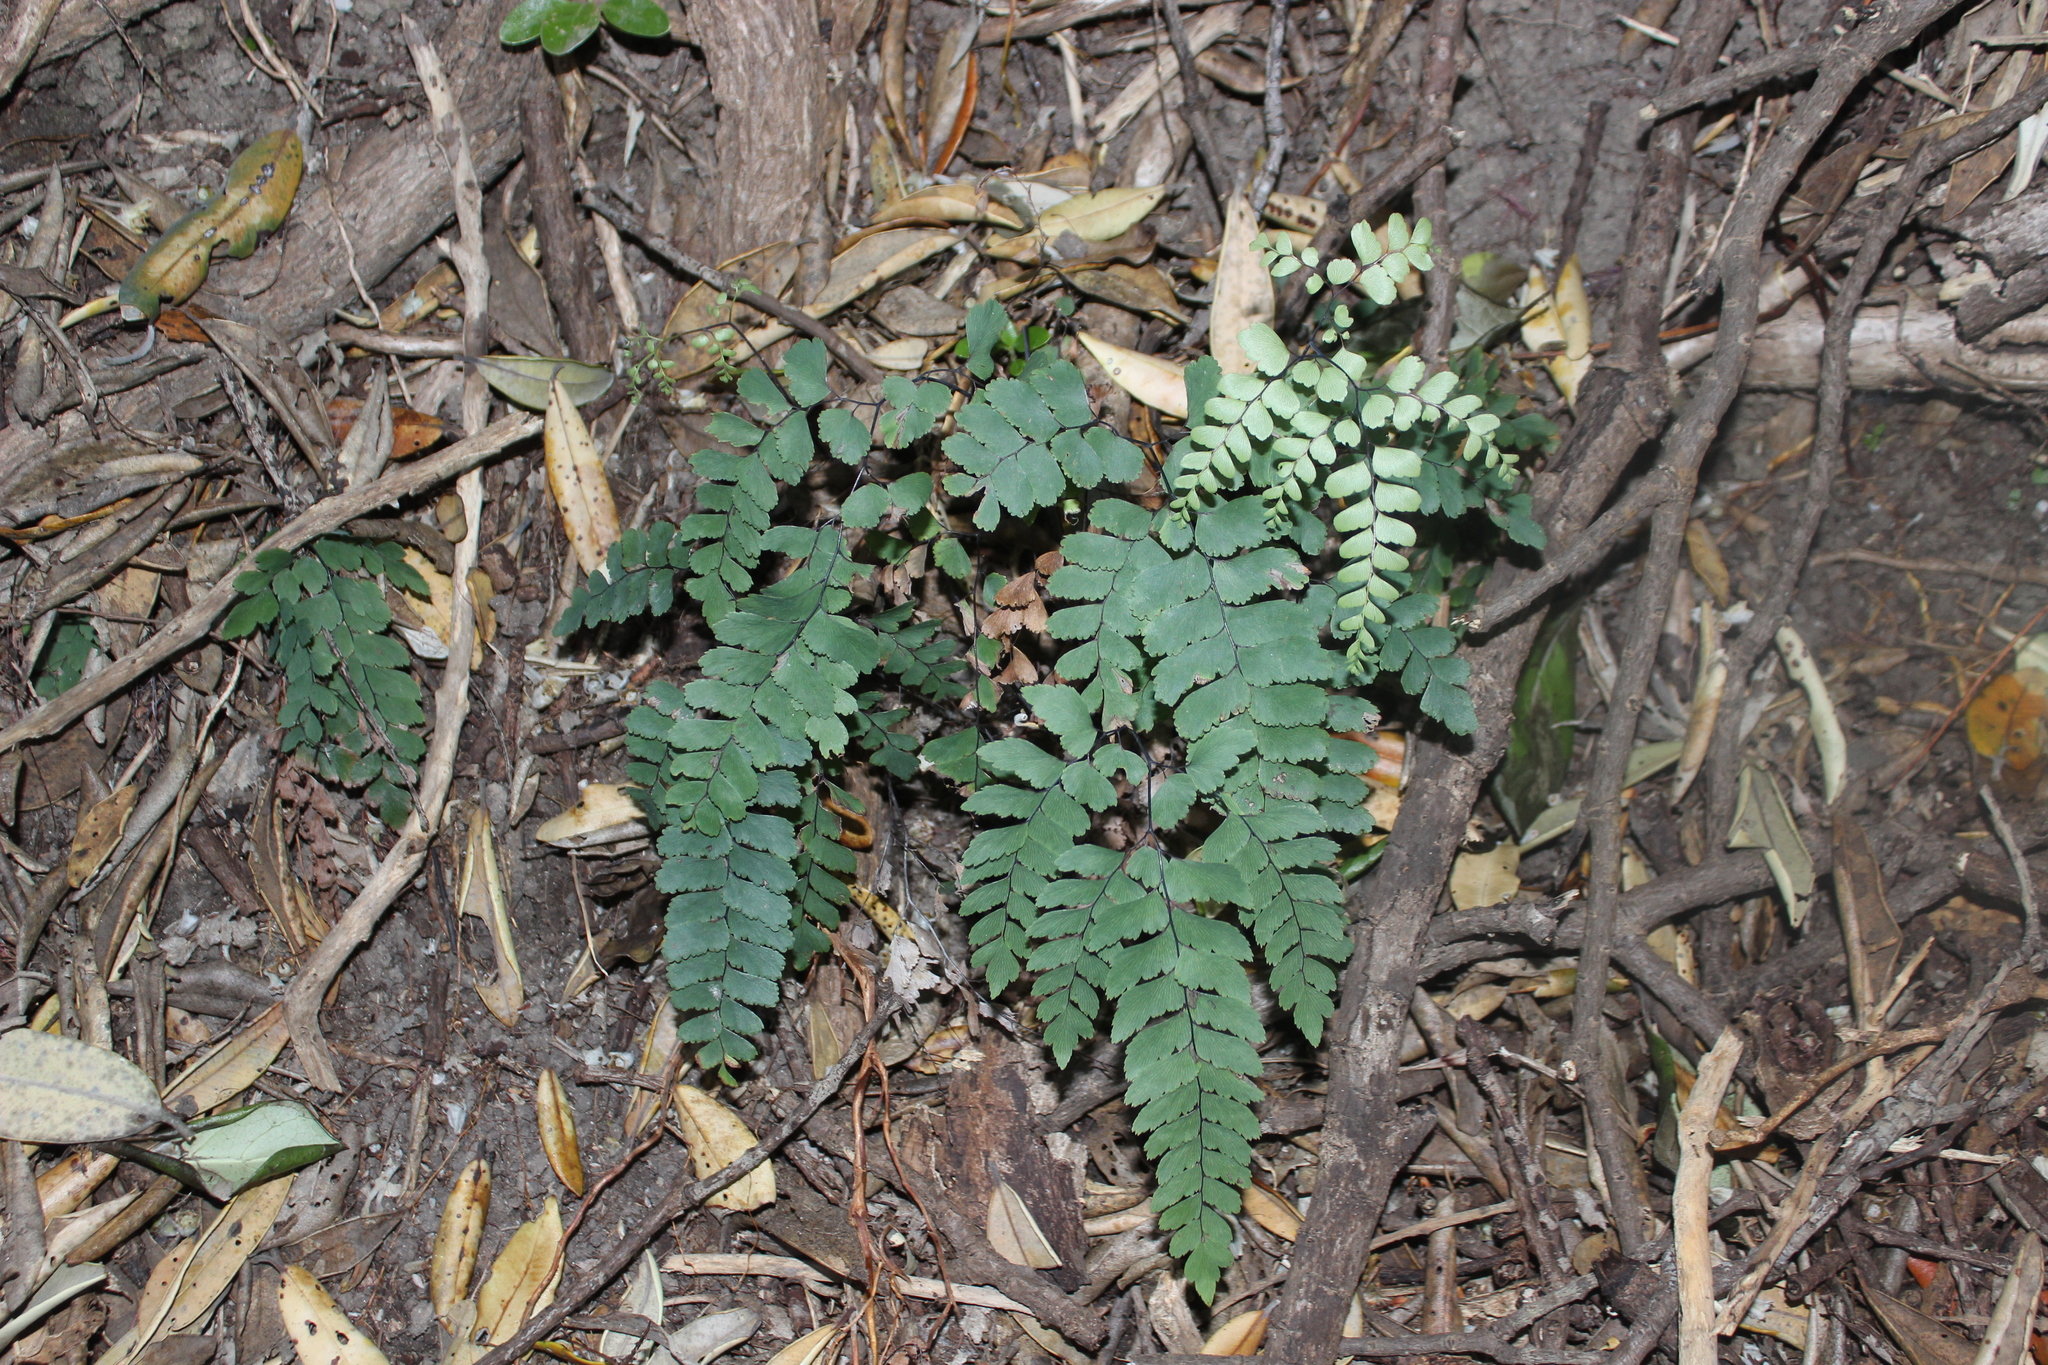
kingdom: Plantae
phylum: Tracheophyta
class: Polypodiopsida
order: Polypodiales
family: Pteridaceae
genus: Adiantum
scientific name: Adiantum cunninghamii
